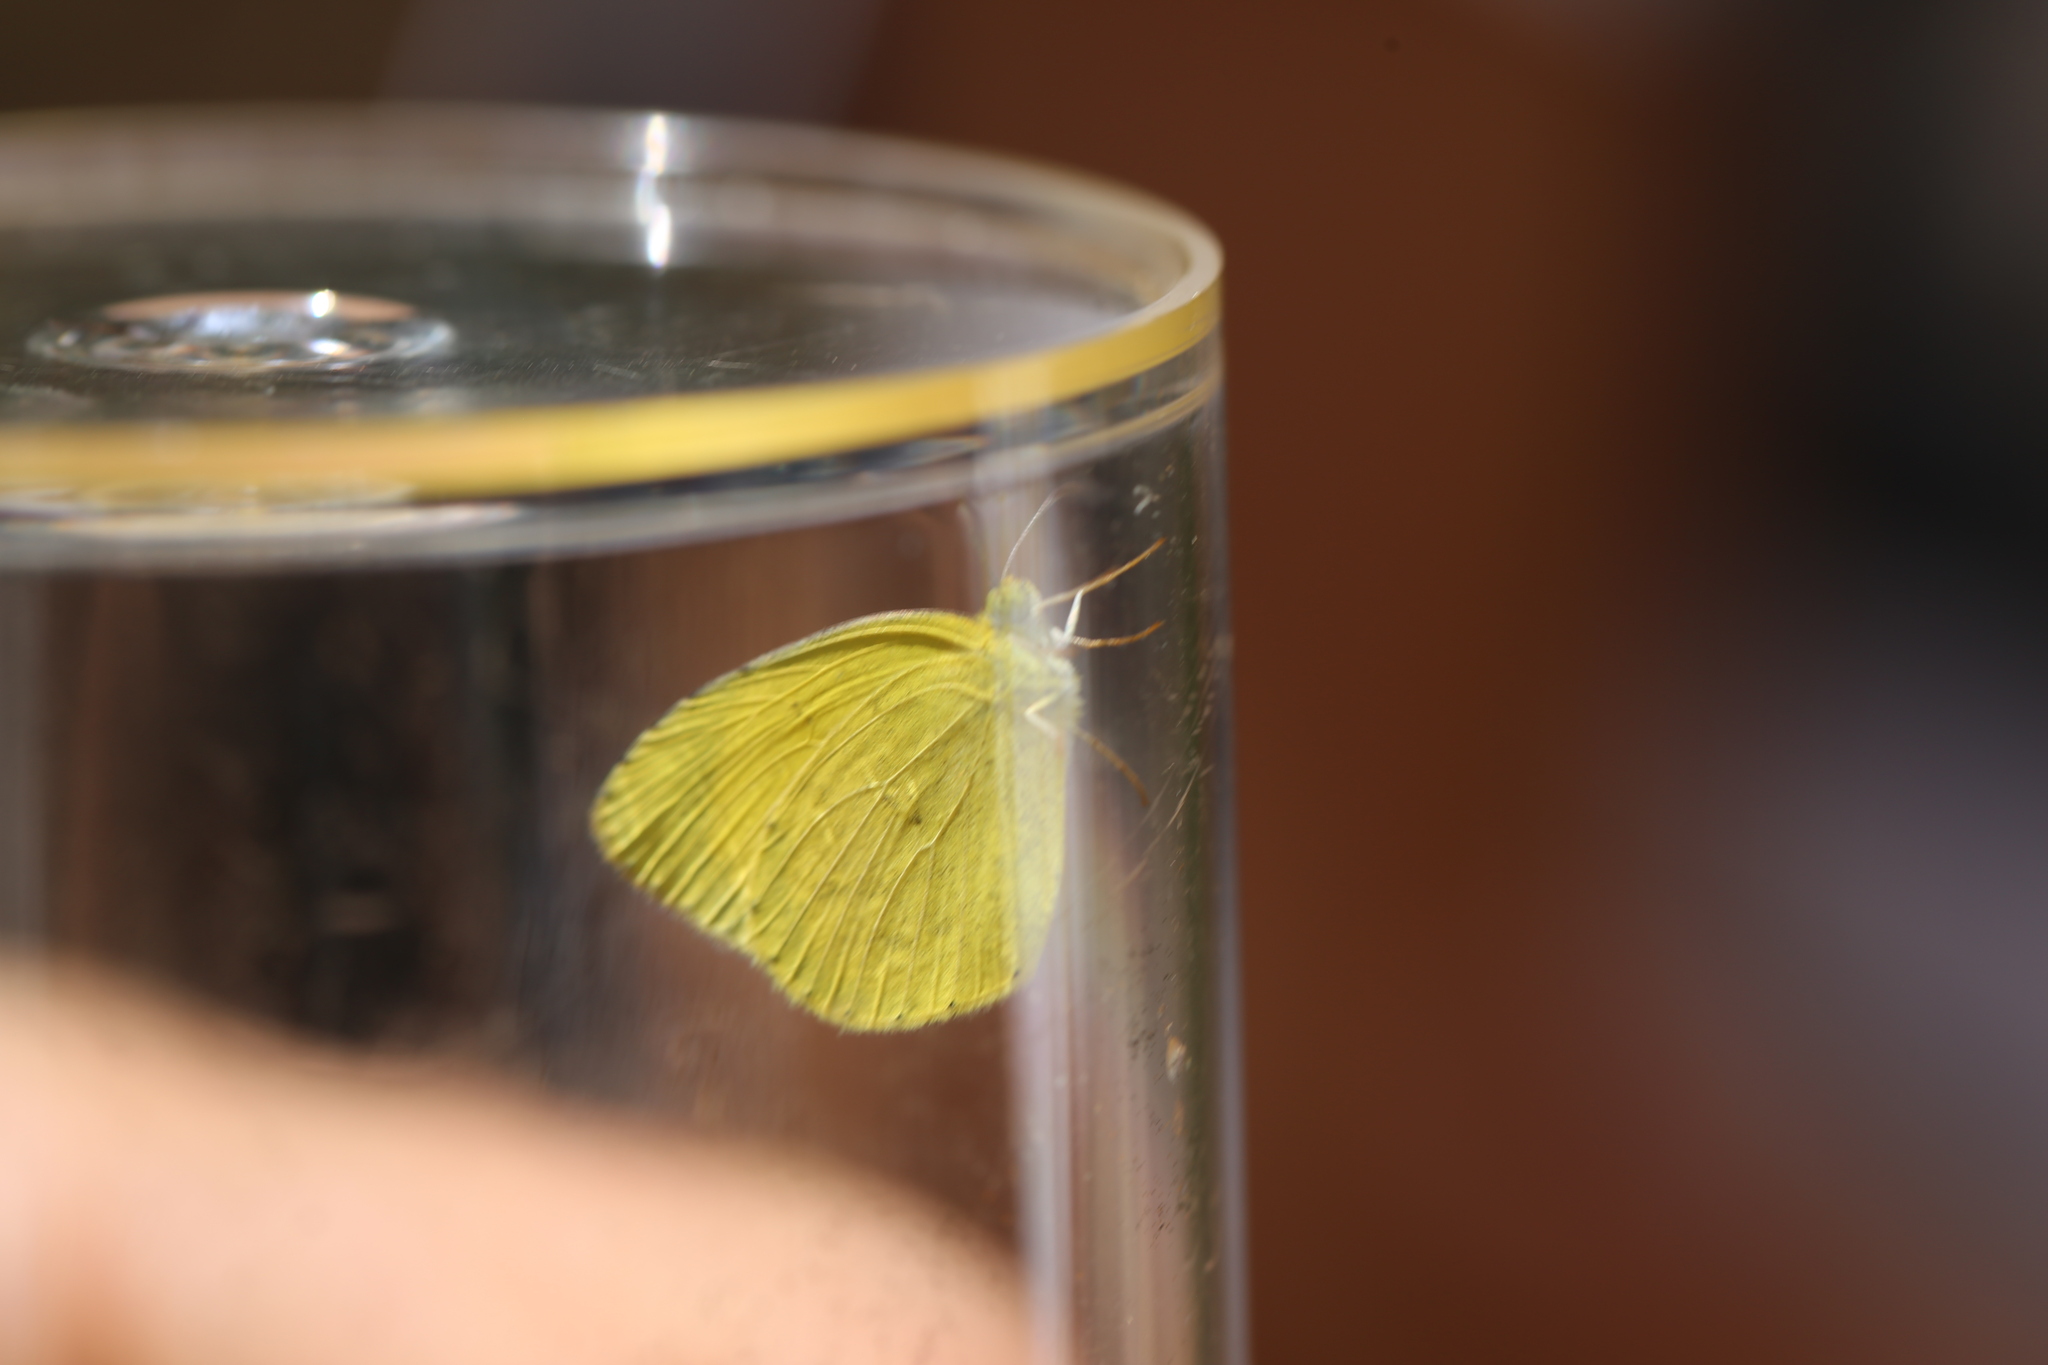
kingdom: Animalia
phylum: Arthropoda
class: Insecta
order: Lepidoptera
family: Pieridae
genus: Eurema
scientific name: Eurema brigitta
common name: Small grass yellow
